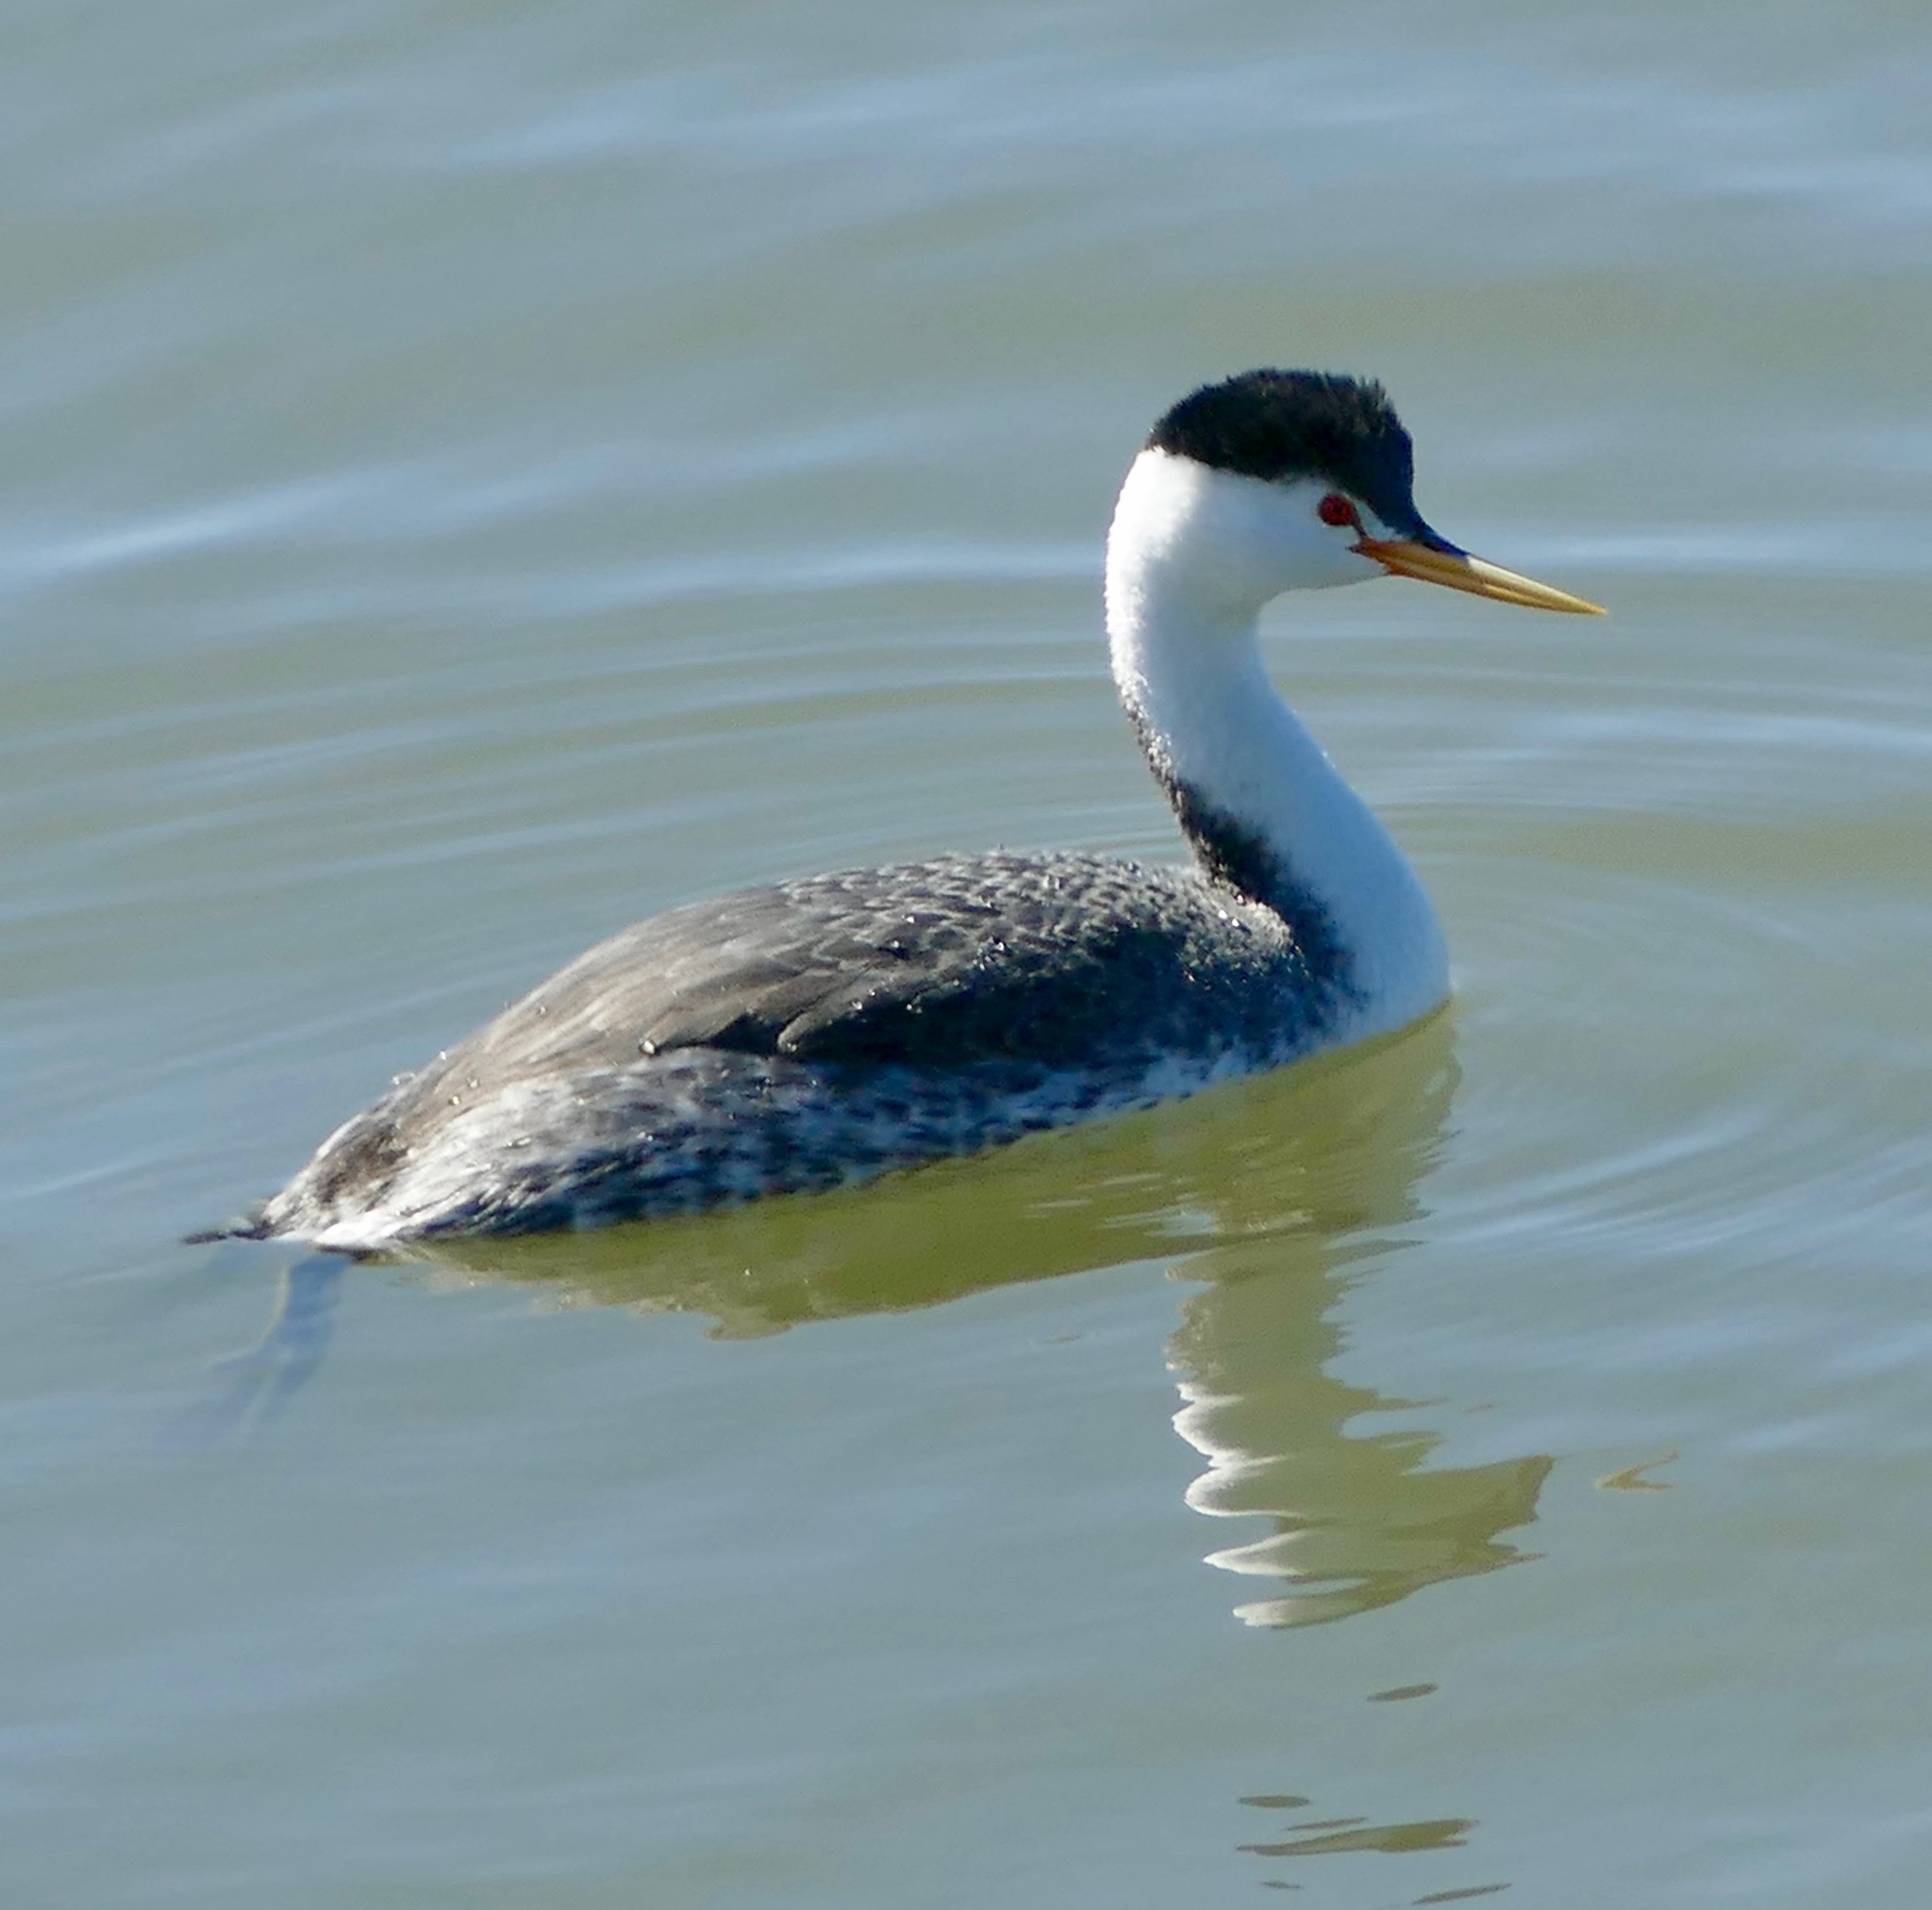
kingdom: Animalia
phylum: Chordata
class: Aves
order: Podicipediformes
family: Podicipedidae
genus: Aechmophorus
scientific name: Aechmophorus clarkii
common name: Clark's grebe
